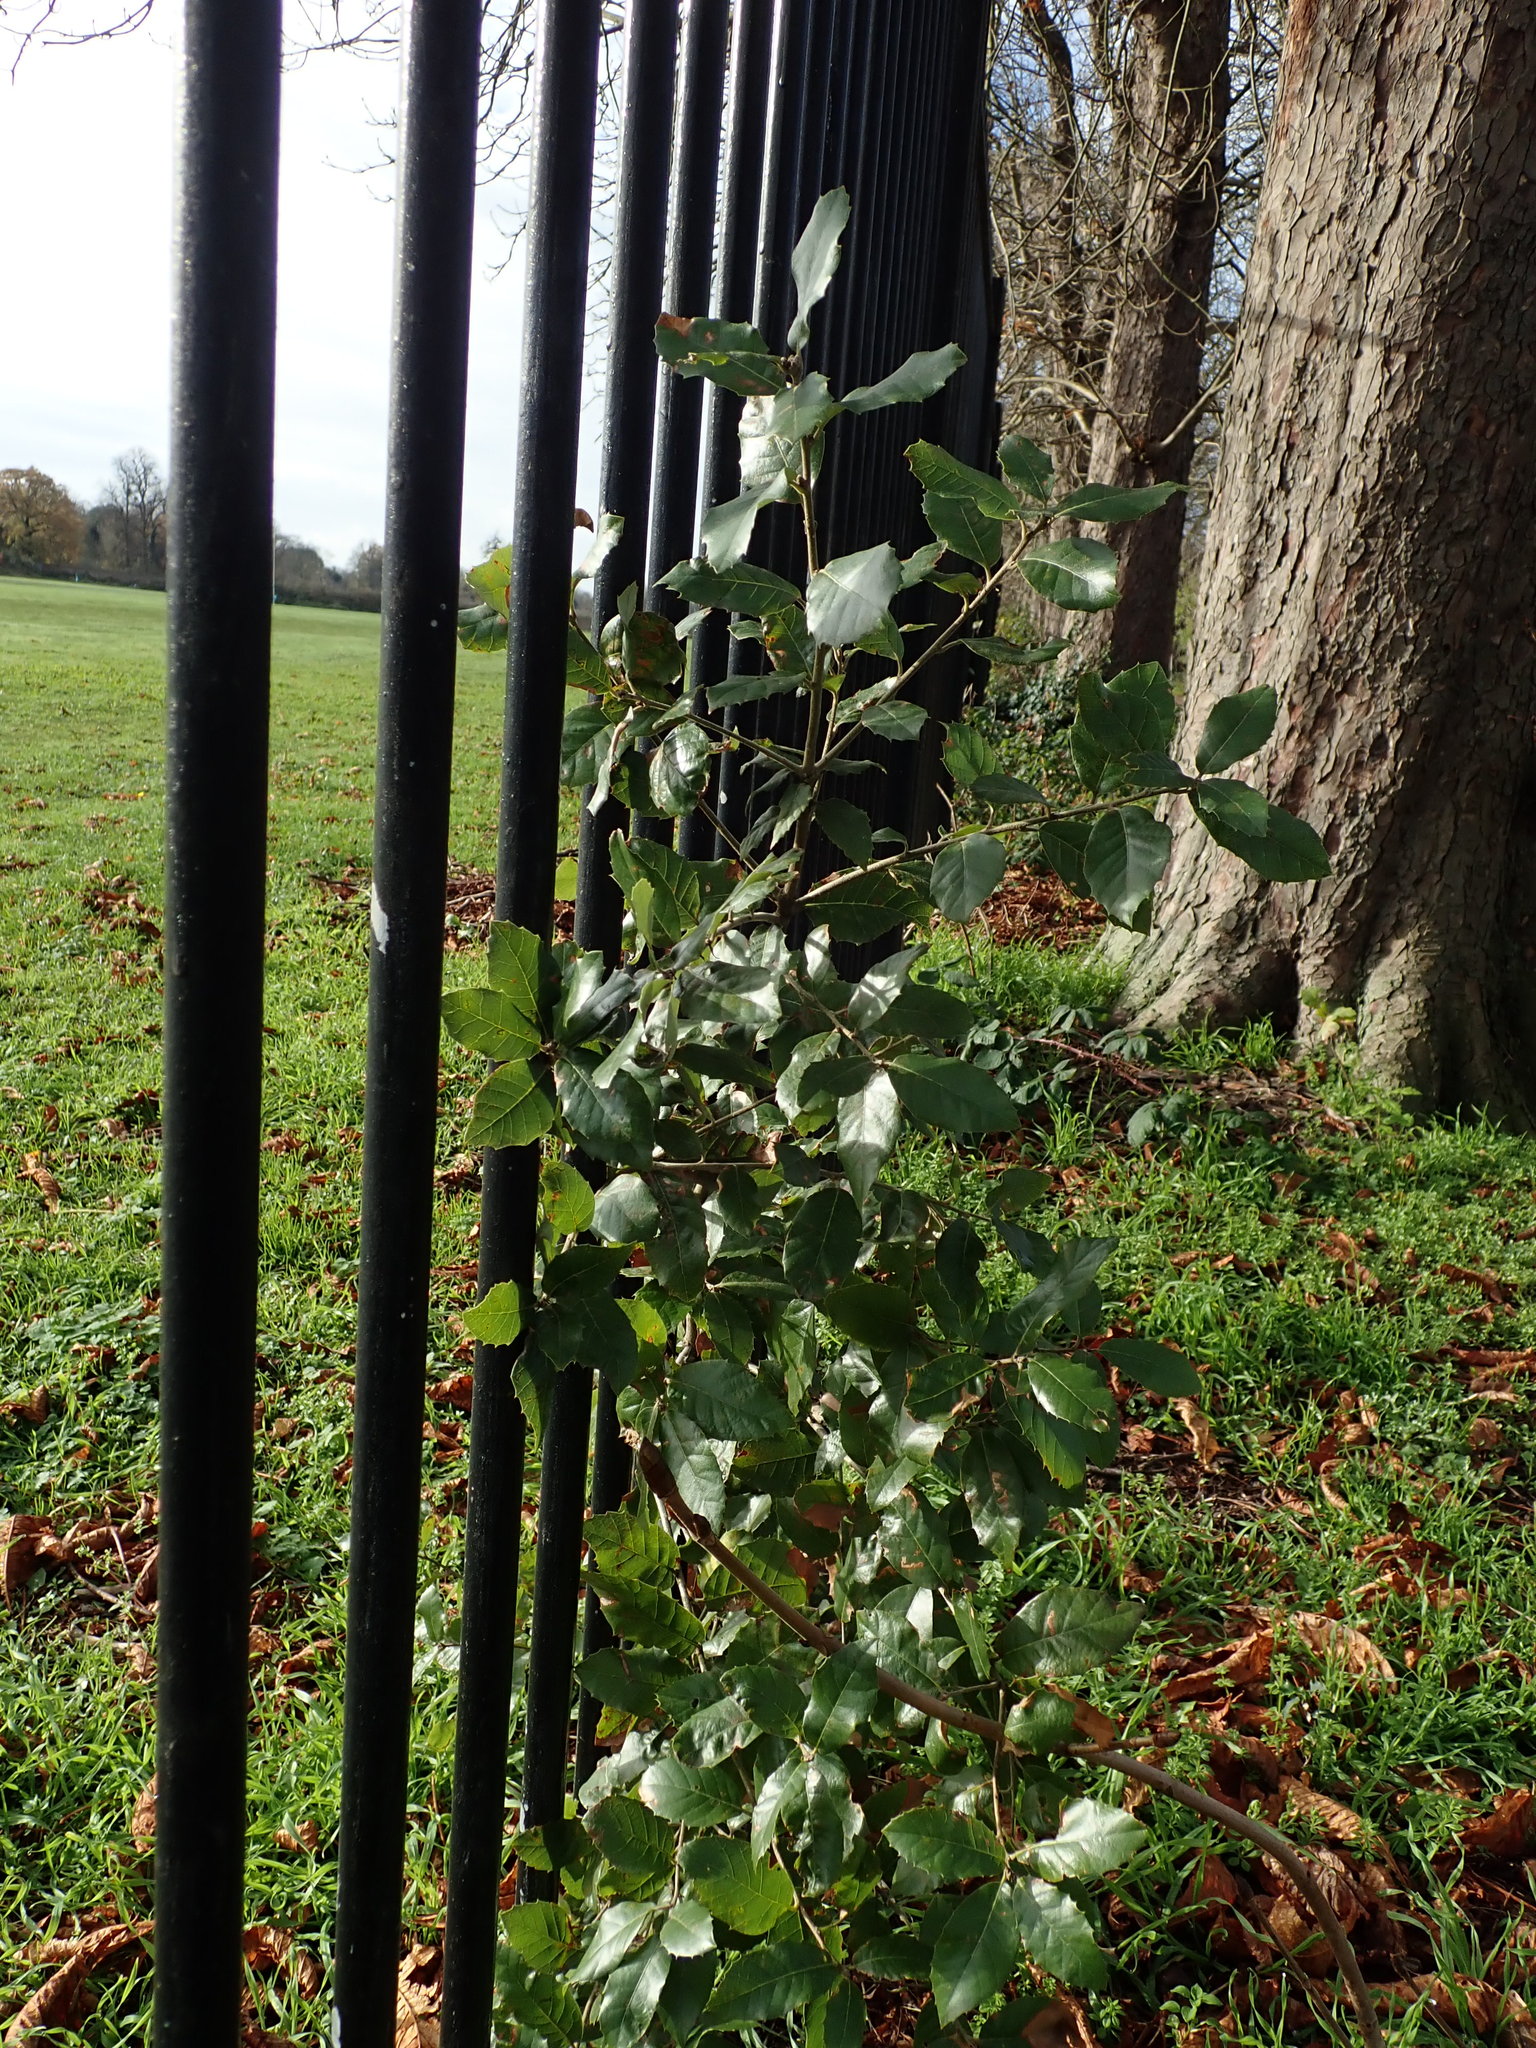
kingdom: Plantae
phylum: Tracheophyta
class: Magnoliopsida
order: Fagales
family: Fagaceae
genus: Quercus
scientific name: Quercus ilex
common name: Evergreen oak
